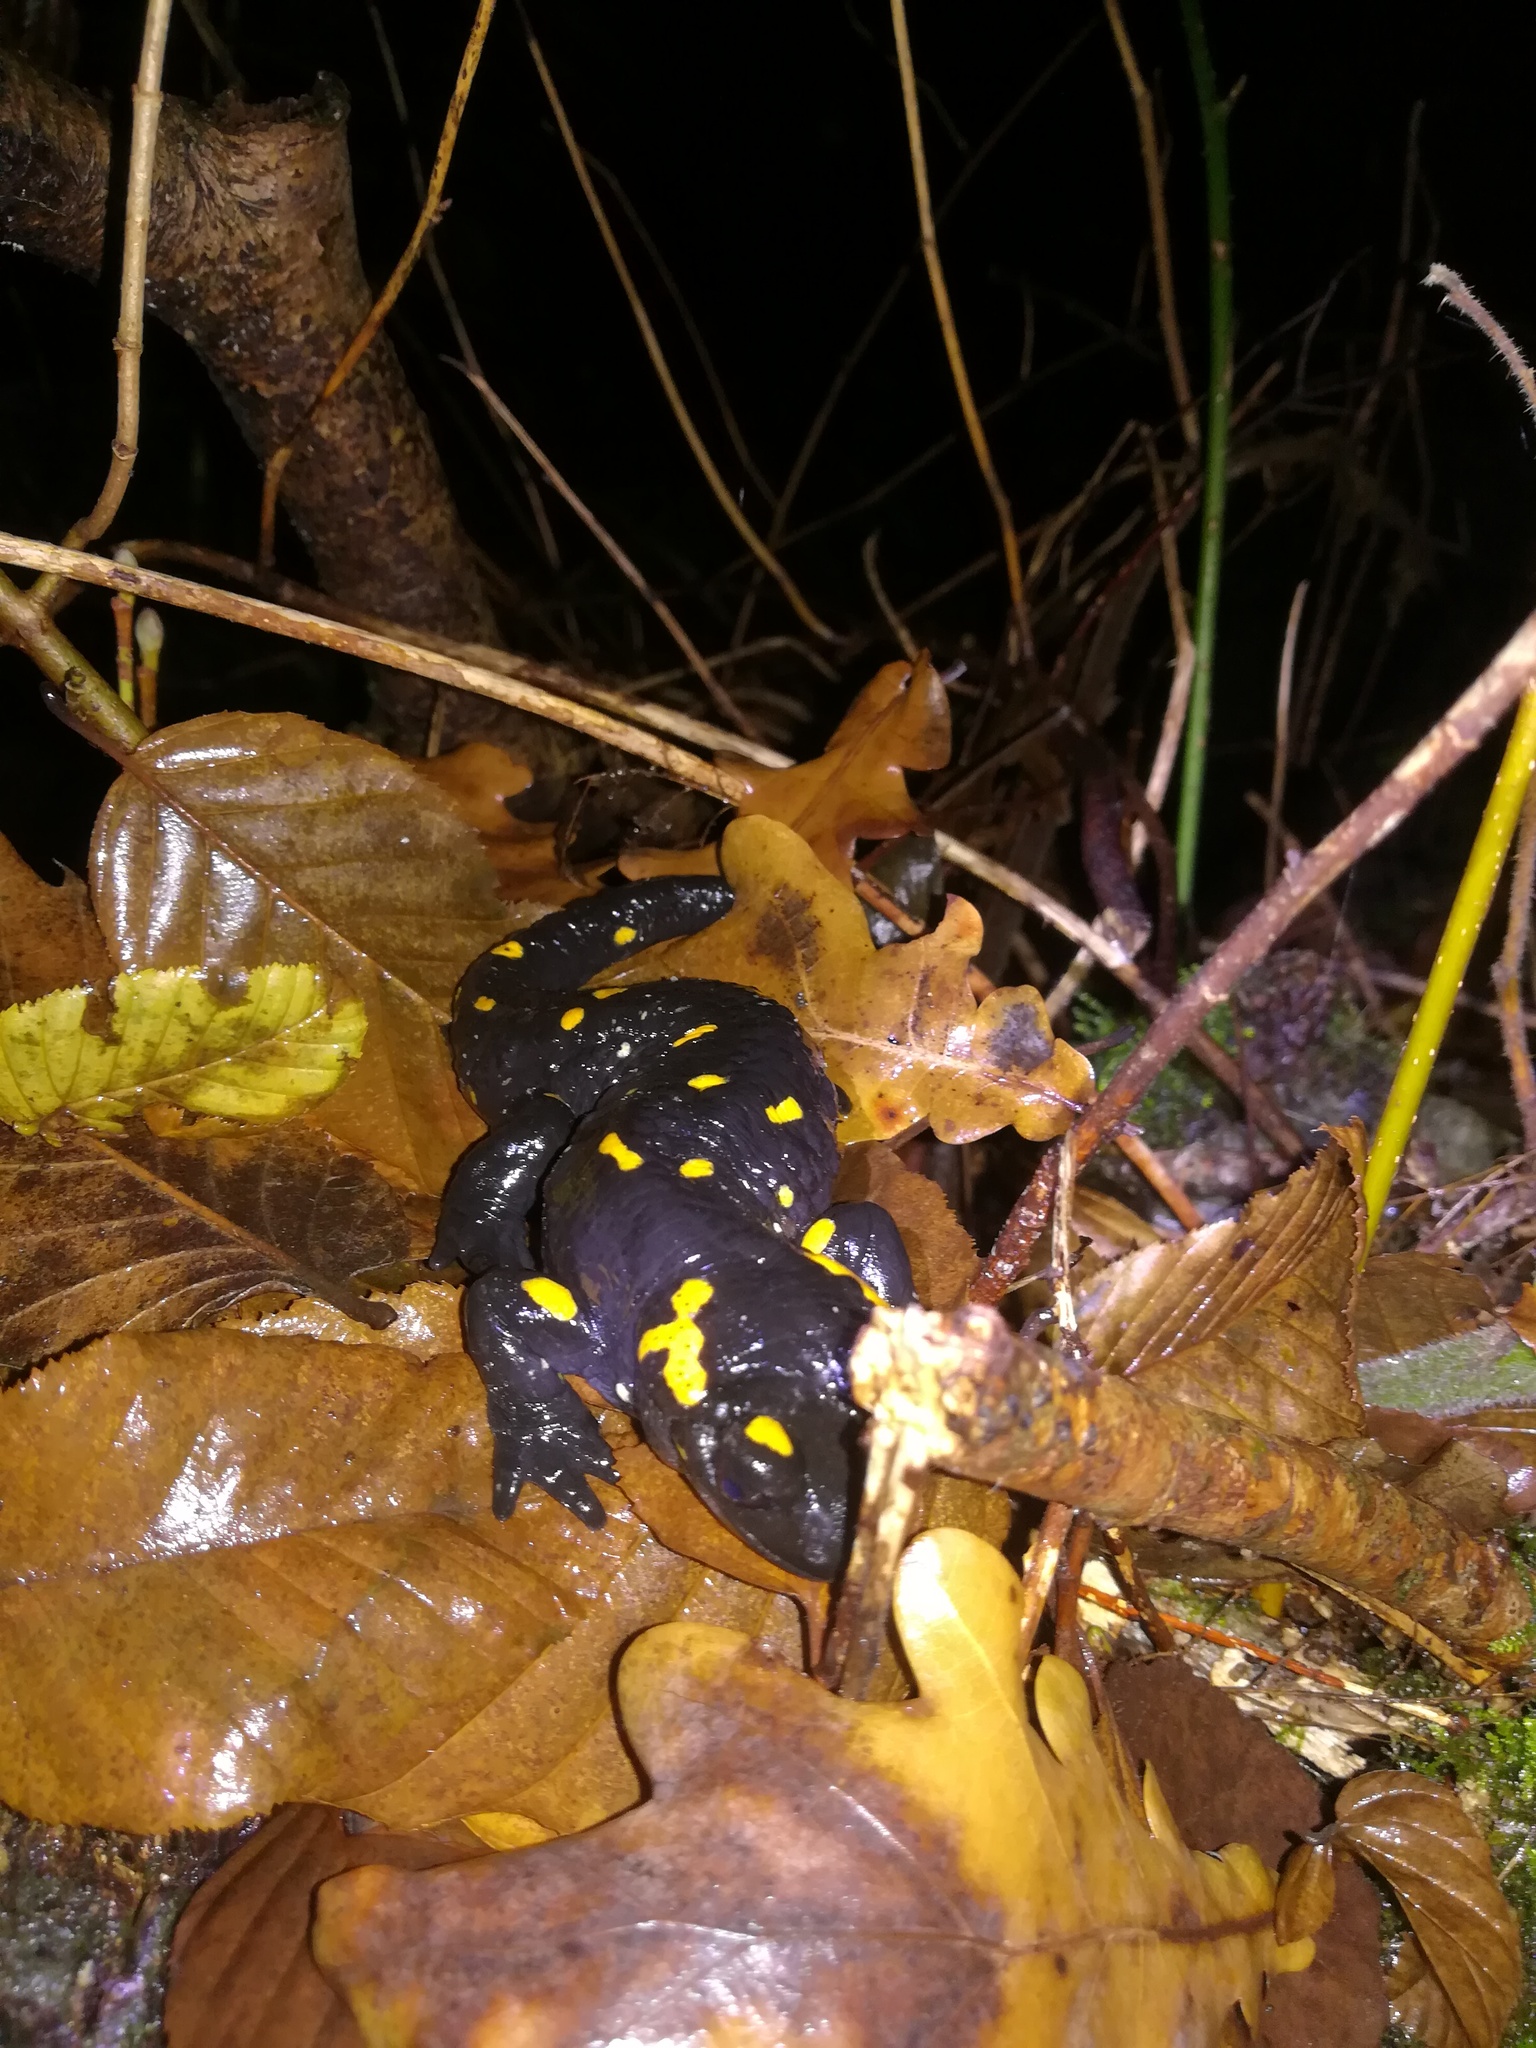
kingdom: Animalia
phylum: Chordata
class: Amphibia
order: Caudata
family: Salamandridae
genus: Salamandra
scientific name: Salamandra salamandra
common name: Fire salamander
